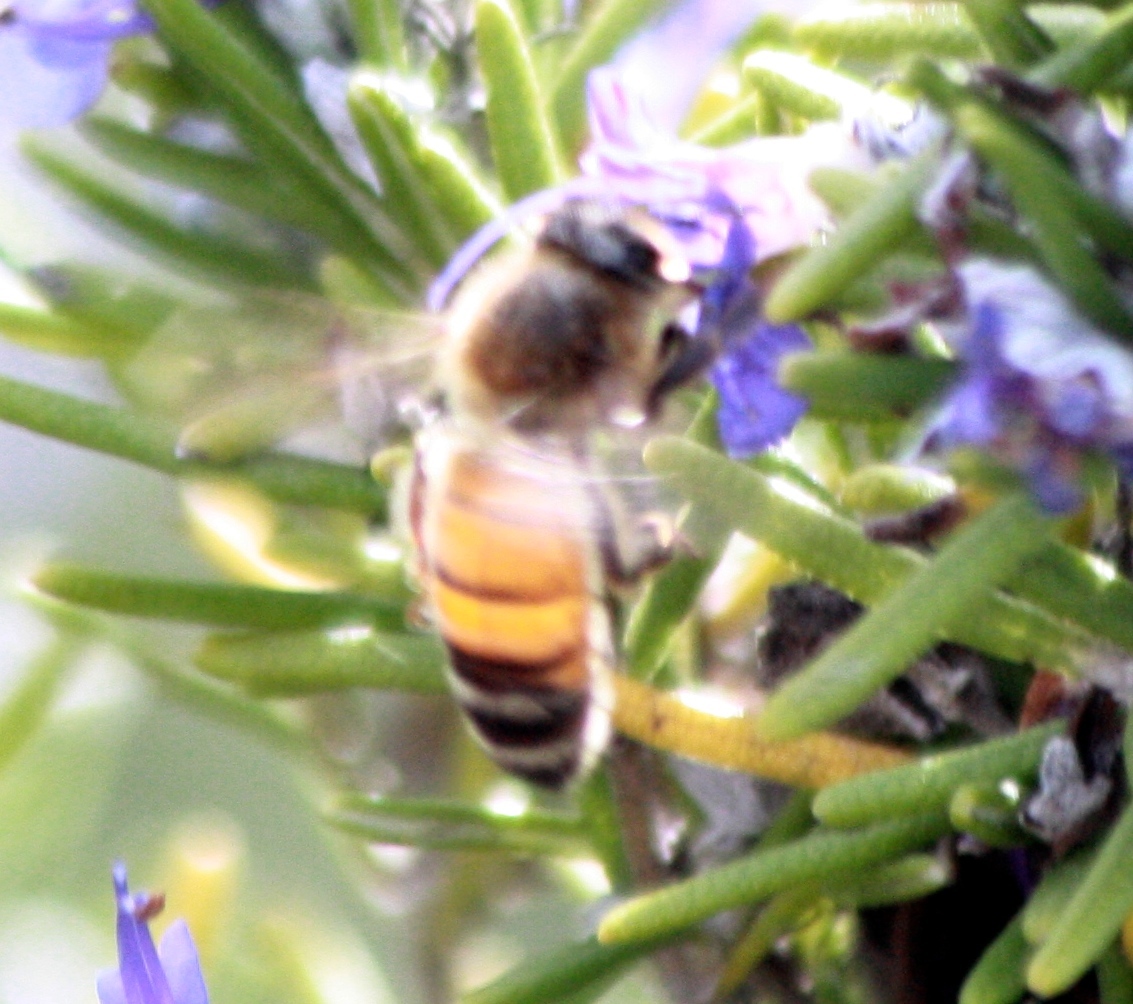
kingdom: Animalia
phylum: Arthropoda
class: Insecta
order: Hymenoptera
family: Apidae
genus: Apis
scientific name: Apis mellifera
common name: Honey bee
